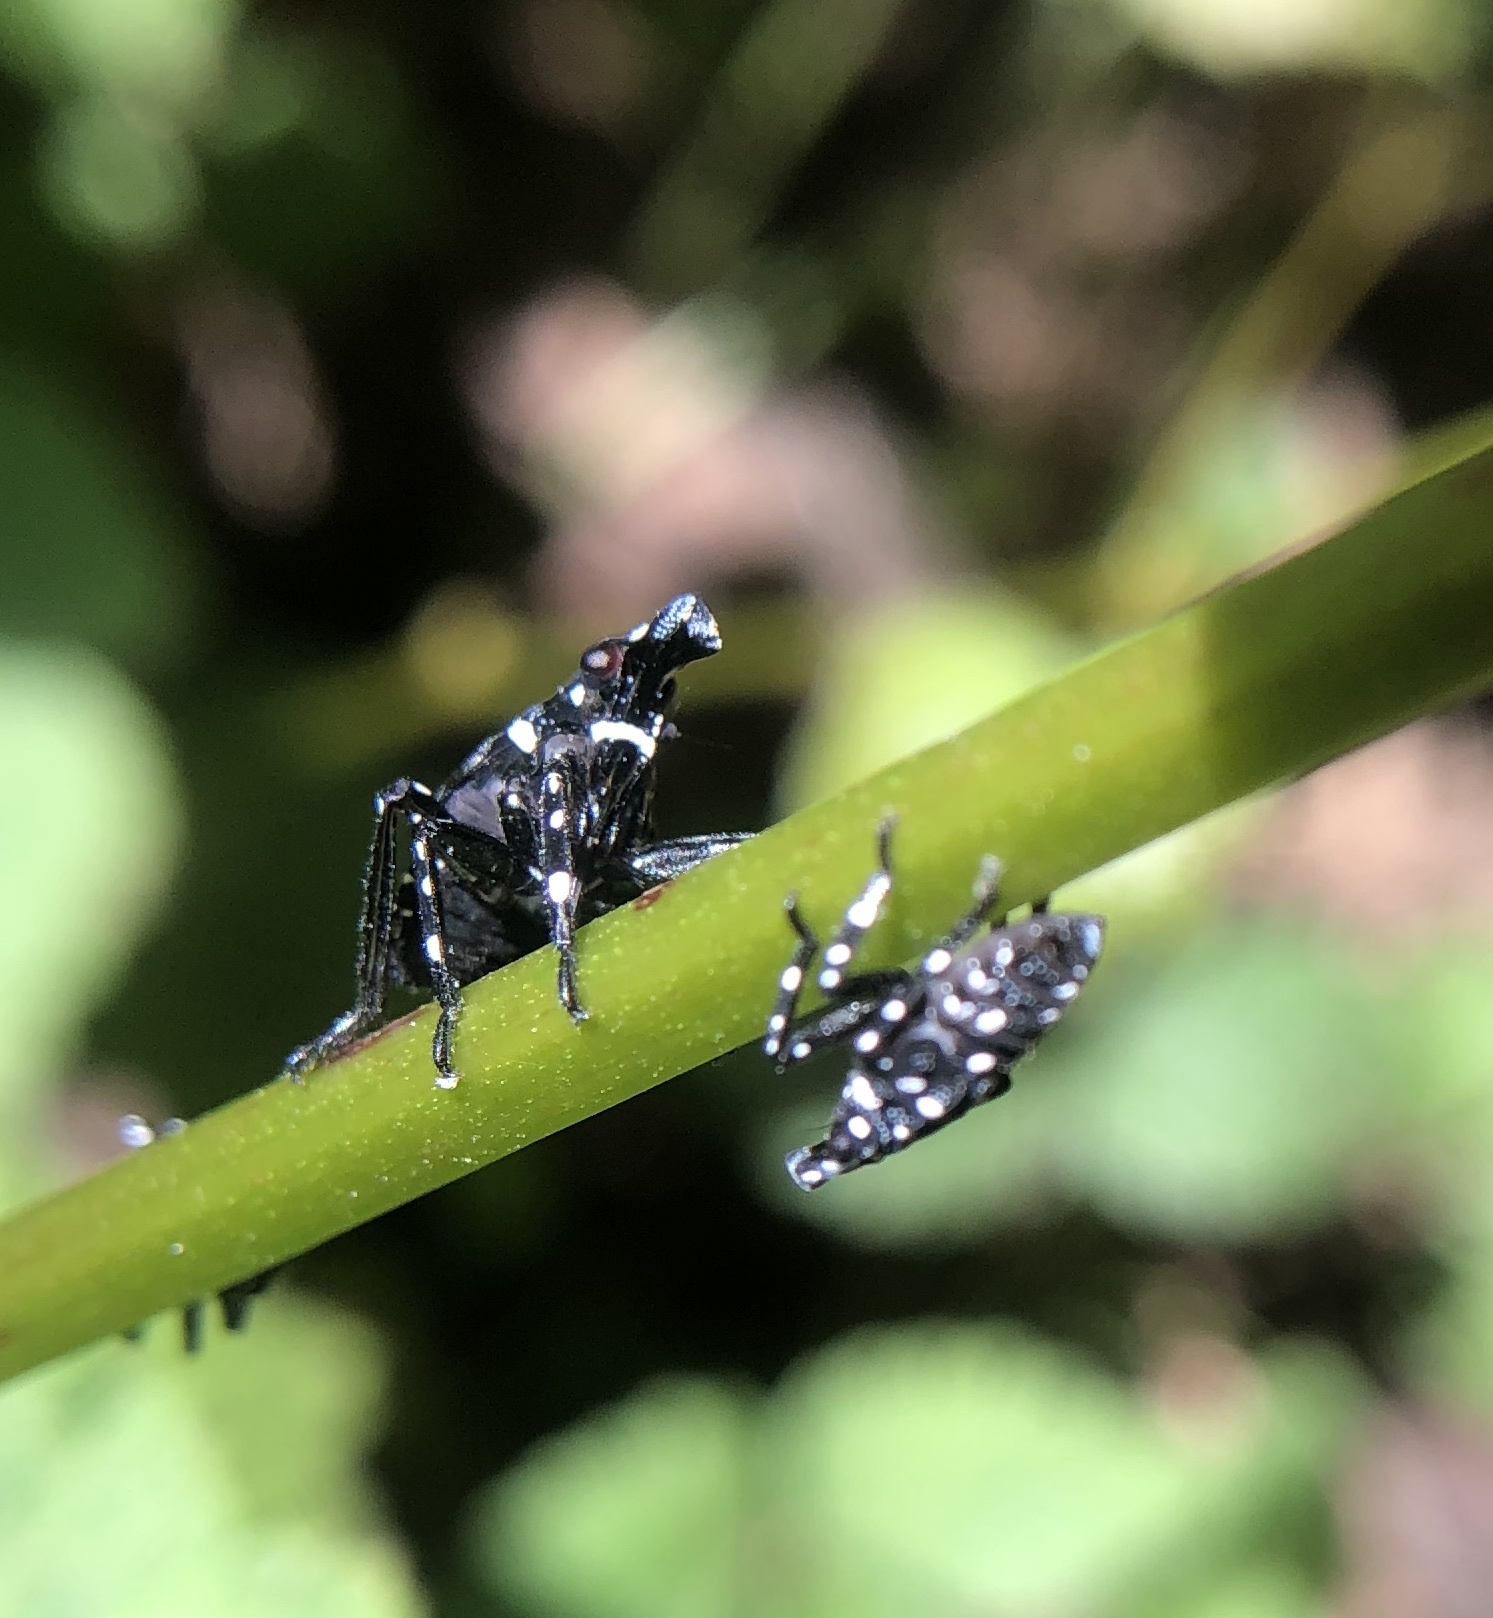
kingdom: Animalia
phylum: Arthropoda
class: Insecta
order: Hemiptera
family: Fulgoridae
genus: Lycorma
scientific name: Lycorma delicatula
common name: Spotted lanternfly
